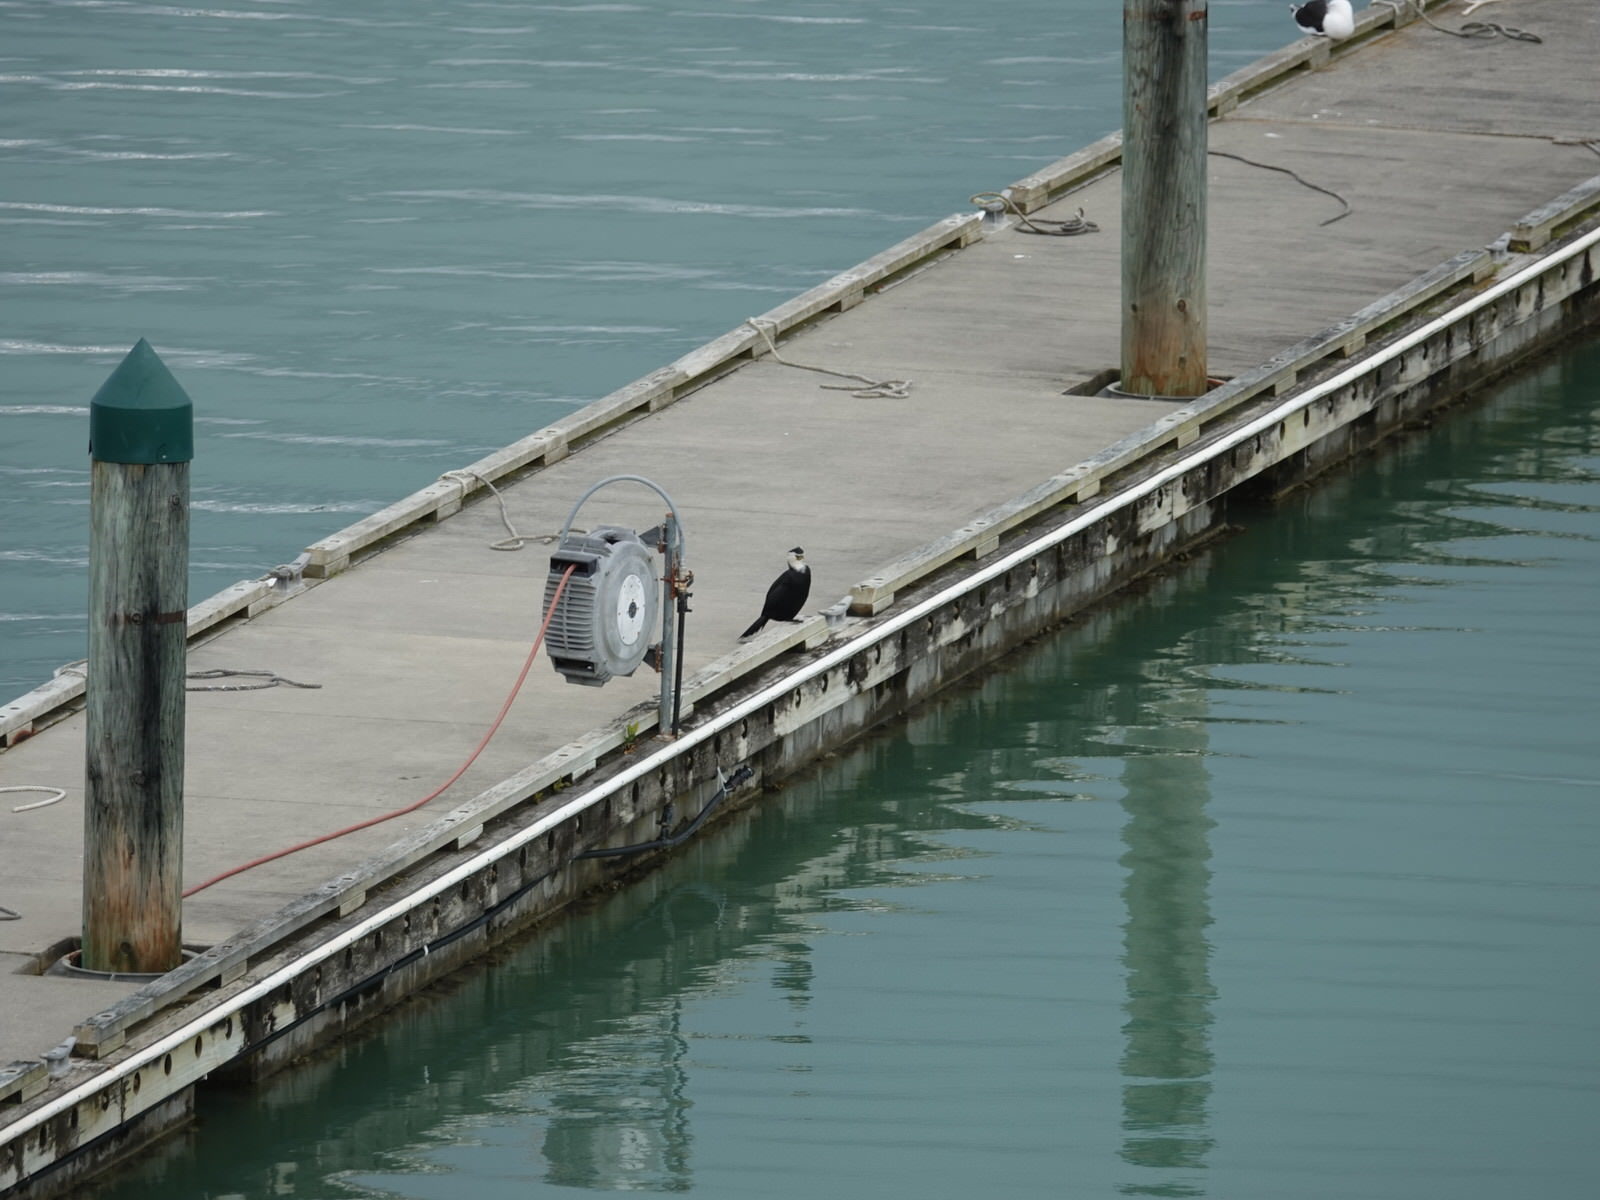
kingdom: Animalia
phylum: Chordata
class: Aves
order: Suliformes
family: Phalacrocoracidae
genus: Microcarbo
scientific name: Microcarbo melanoleucos
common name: Little pied cormorant
